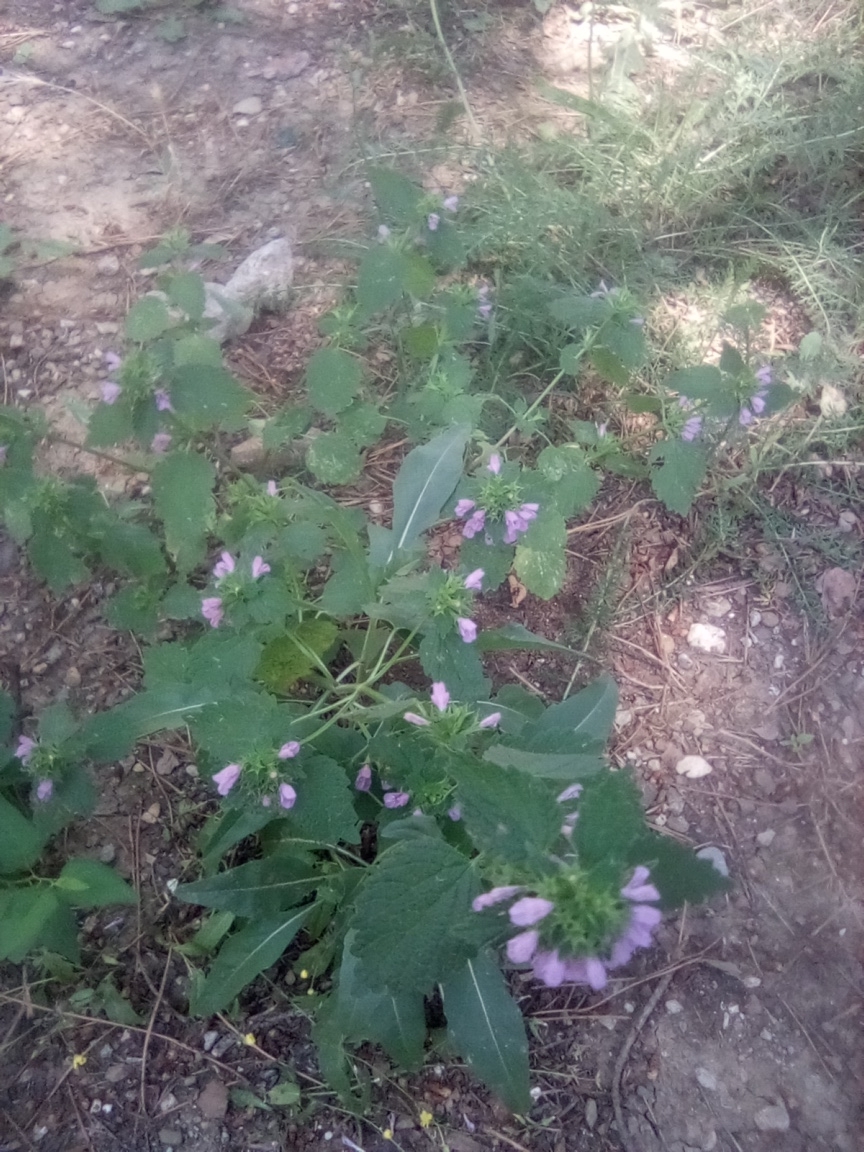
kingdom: Plantae
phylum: Tracheophyta
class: Magnoliopsida
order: Lamiales
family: Lamiaceae
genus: Ballota
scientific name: Ballota nigra
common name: Black horehound
